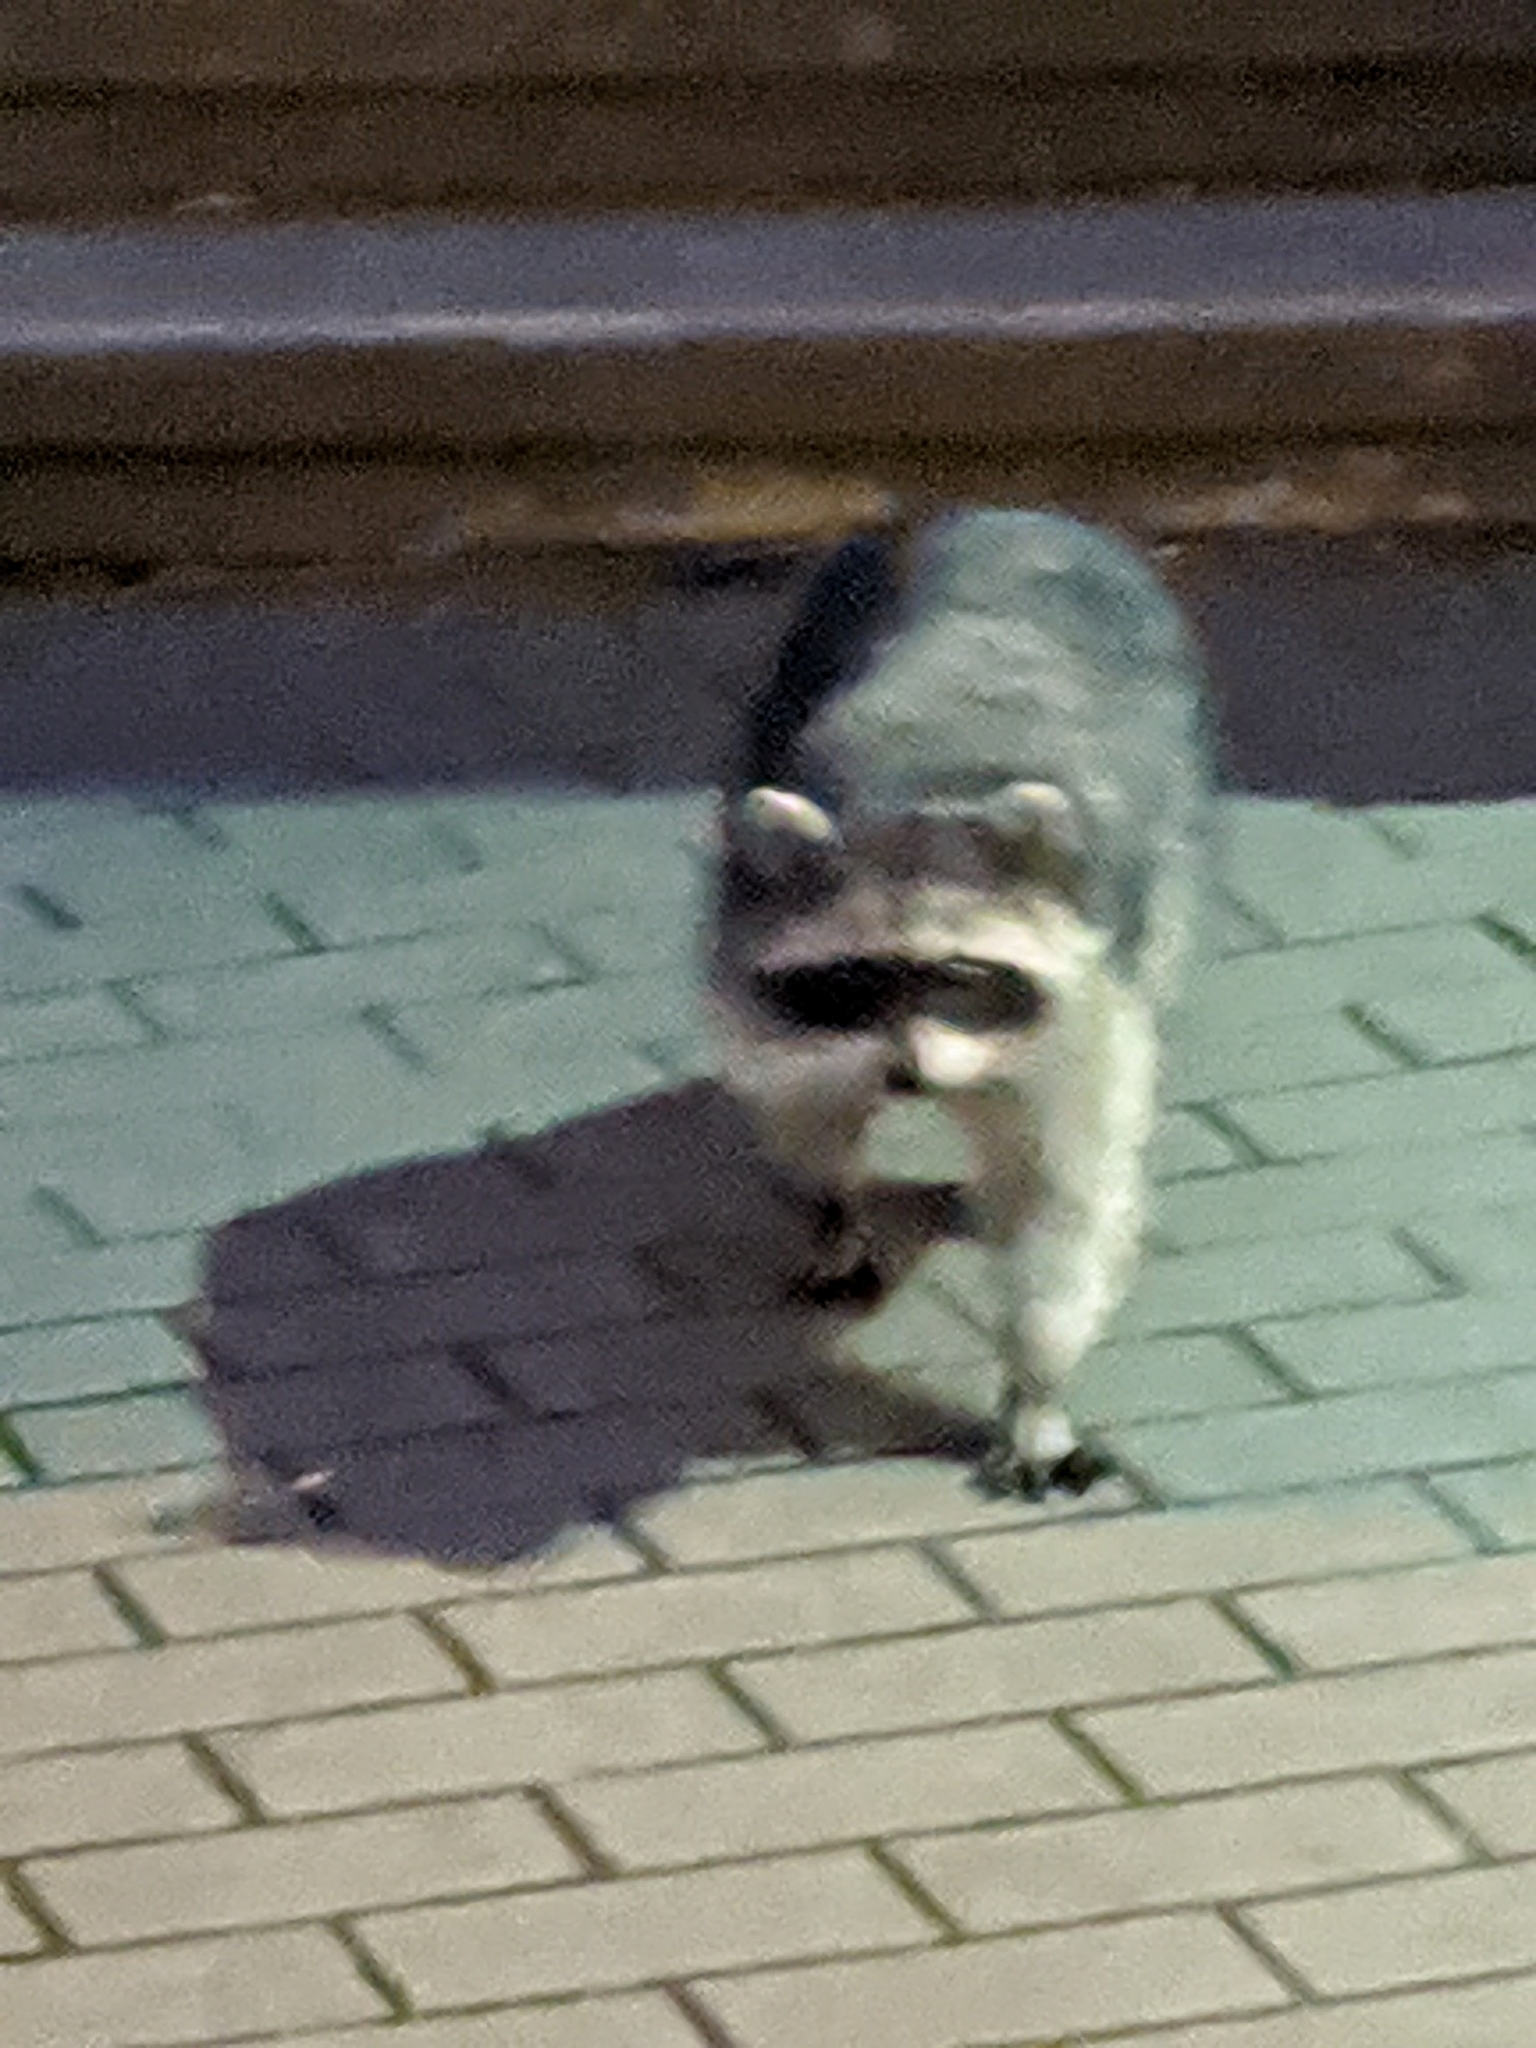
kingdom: Animalia
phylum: Chordata
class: Mammalia
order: Carnivora
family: Procyonidae
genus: Procyon
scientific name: Procyon lotor
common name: Raccoon
